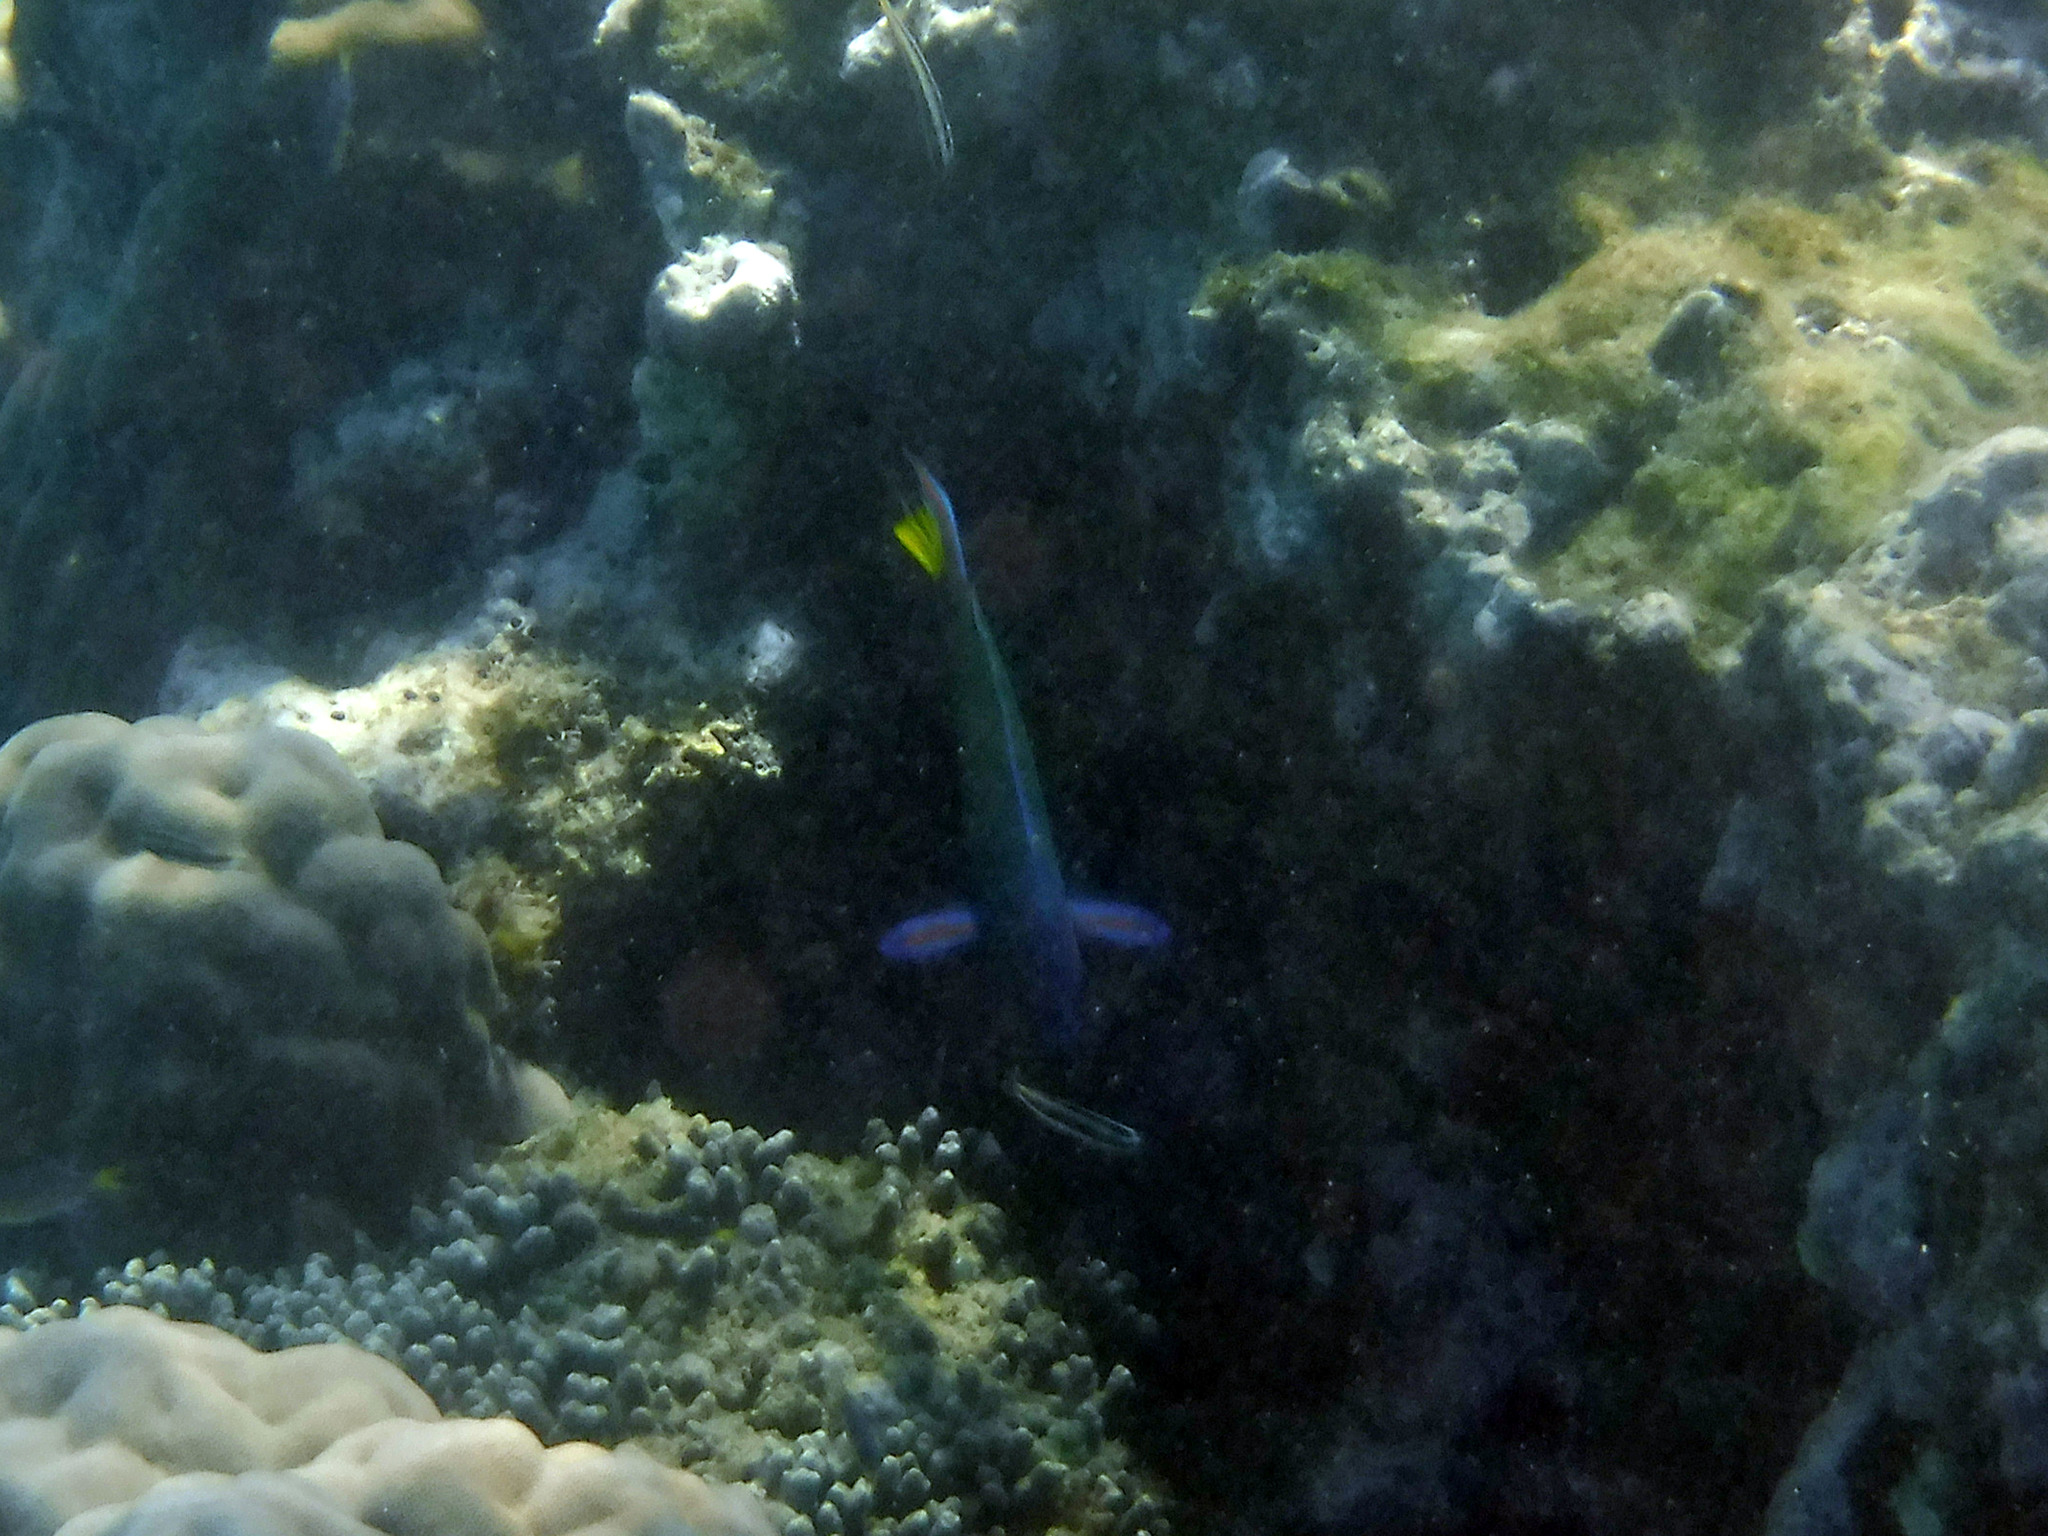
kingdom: Animalia
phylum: Chordata
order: Perciformes
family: Labridae
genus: Thalassoma
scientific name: Thalassoma lunare
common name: Blue wrasse
